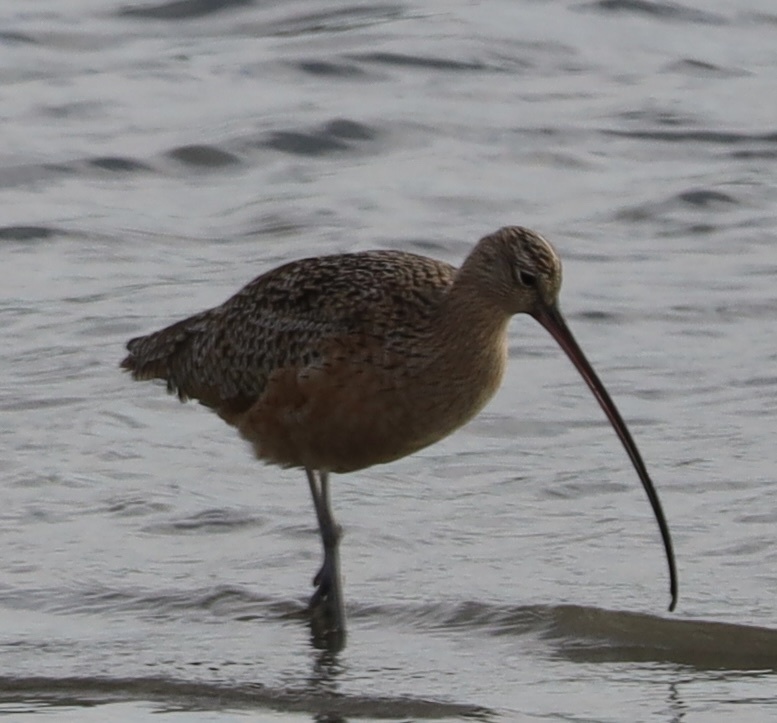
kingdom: Animalia
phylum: Chordata
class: Aves
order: Charadriiformes
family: Scolopacidae
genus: Numenius
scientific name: Numenius americanus
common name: Long-billed curlew
